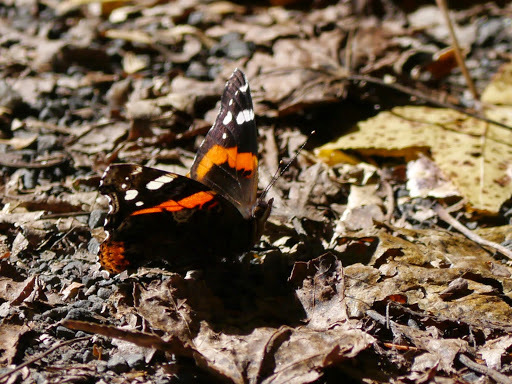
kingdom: Animalia
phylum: Arthropoda
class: Insecta
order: Lepidoptera
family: Nymphalidae
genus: Vanessa
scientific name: Vanessa atalanta
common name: Red admiral
